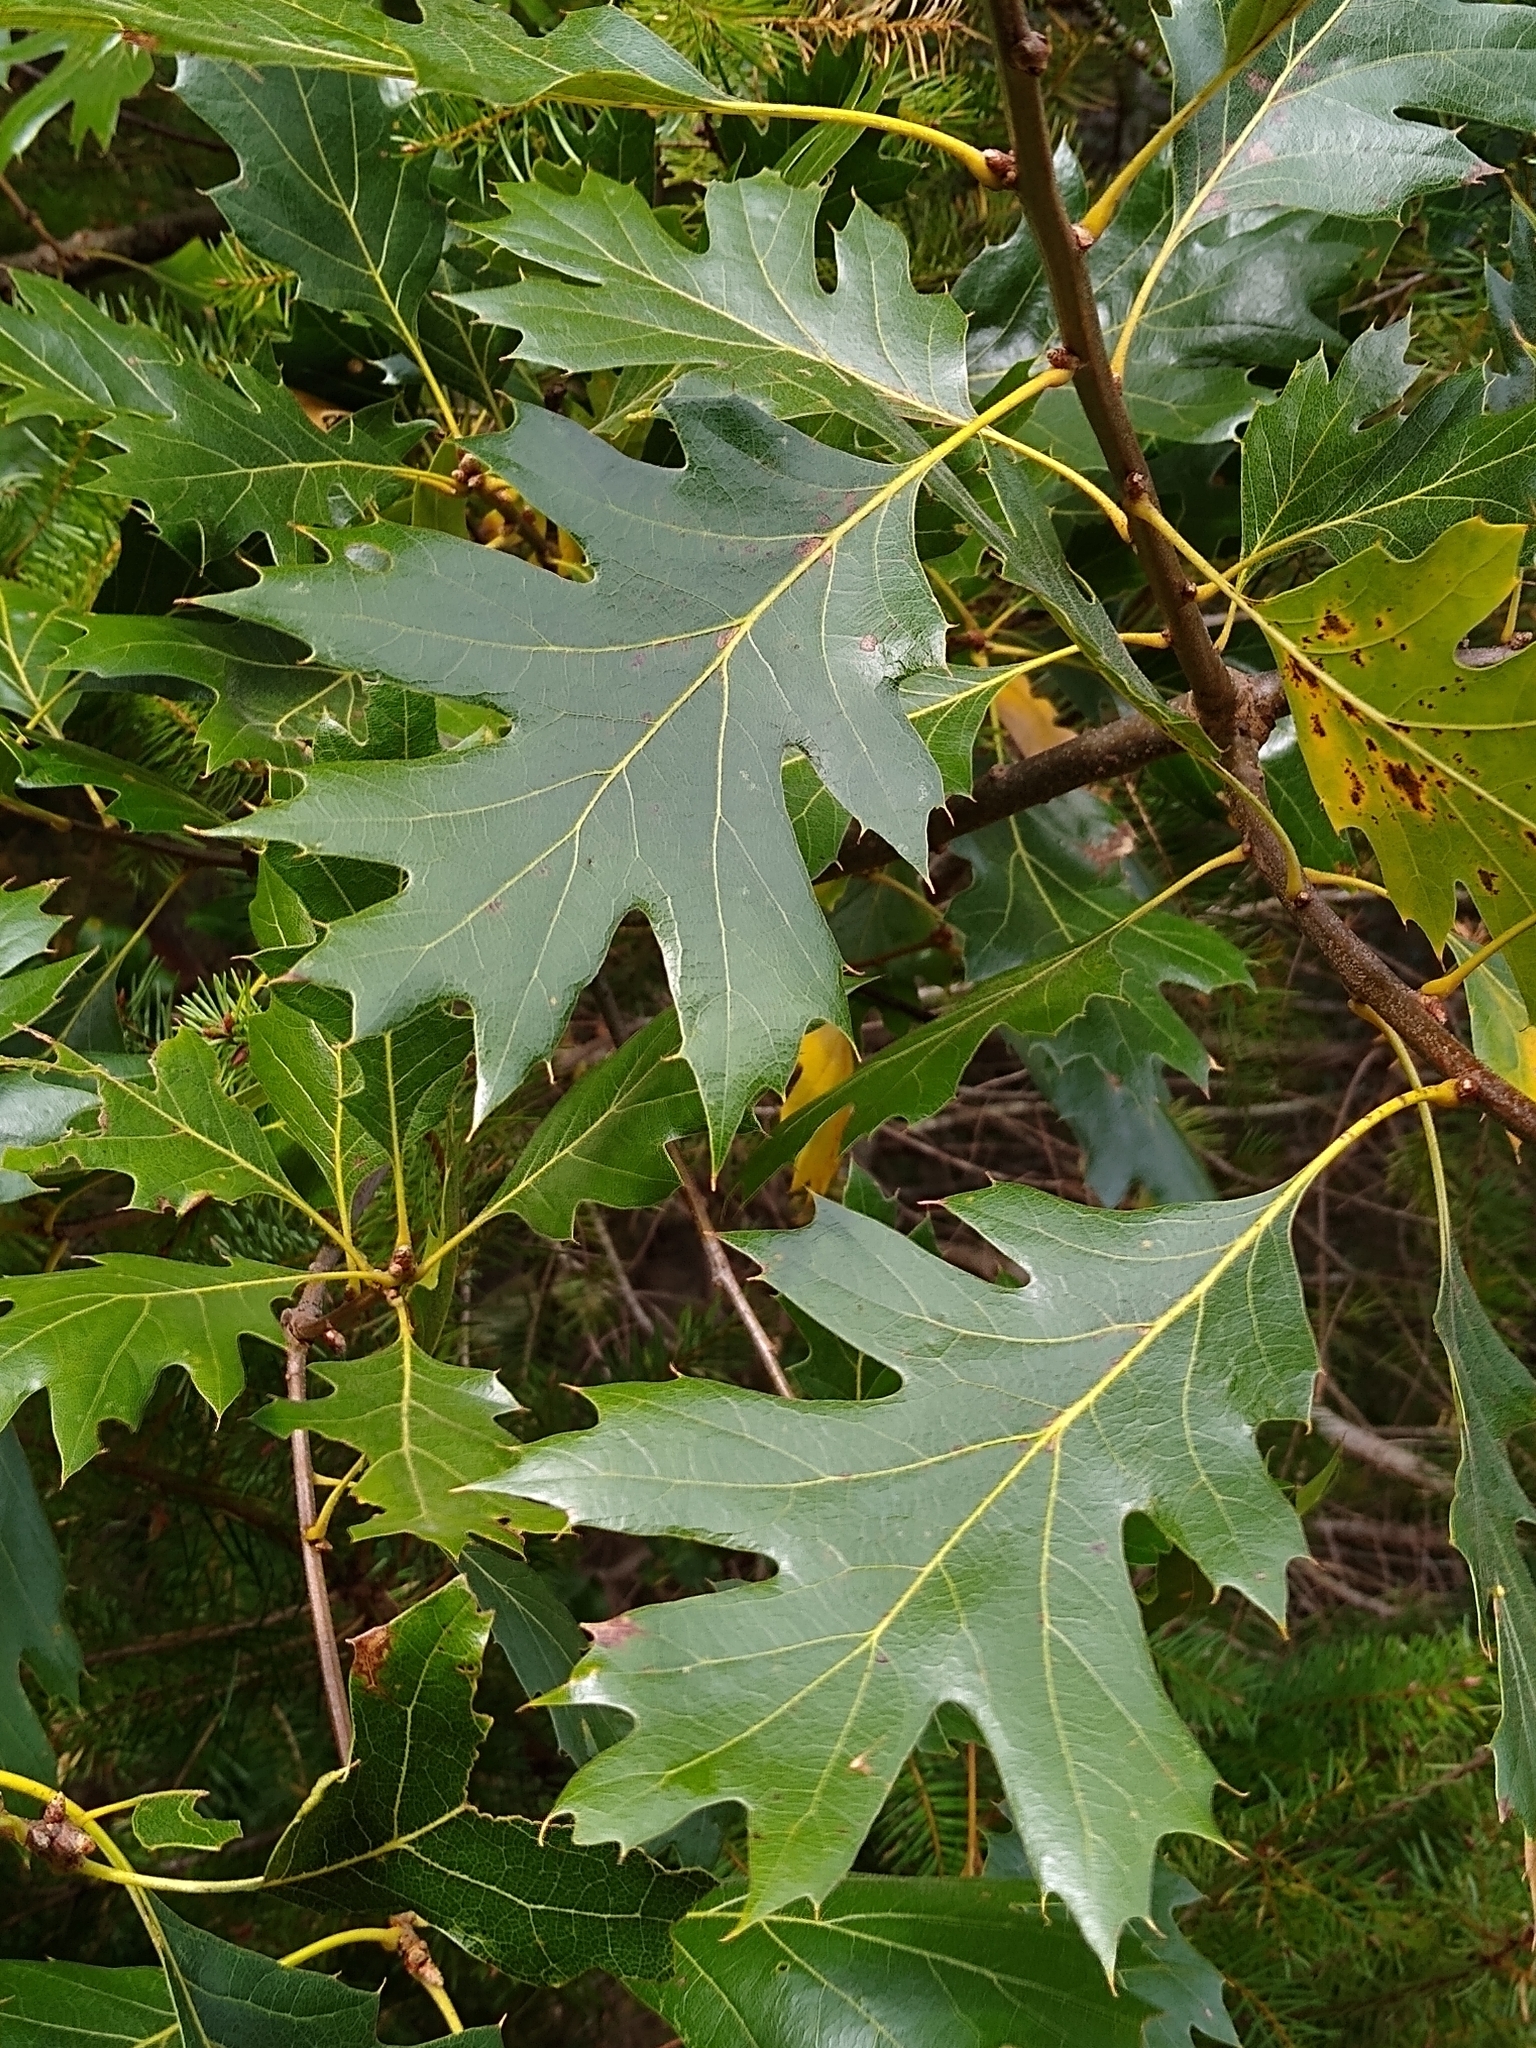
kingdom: Plantae
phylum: Tracheophyta
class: Magnoliopsida
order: Fagales
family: Fagaceae
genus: Quercus
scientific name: Quercus kelloggii
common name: California black oak
